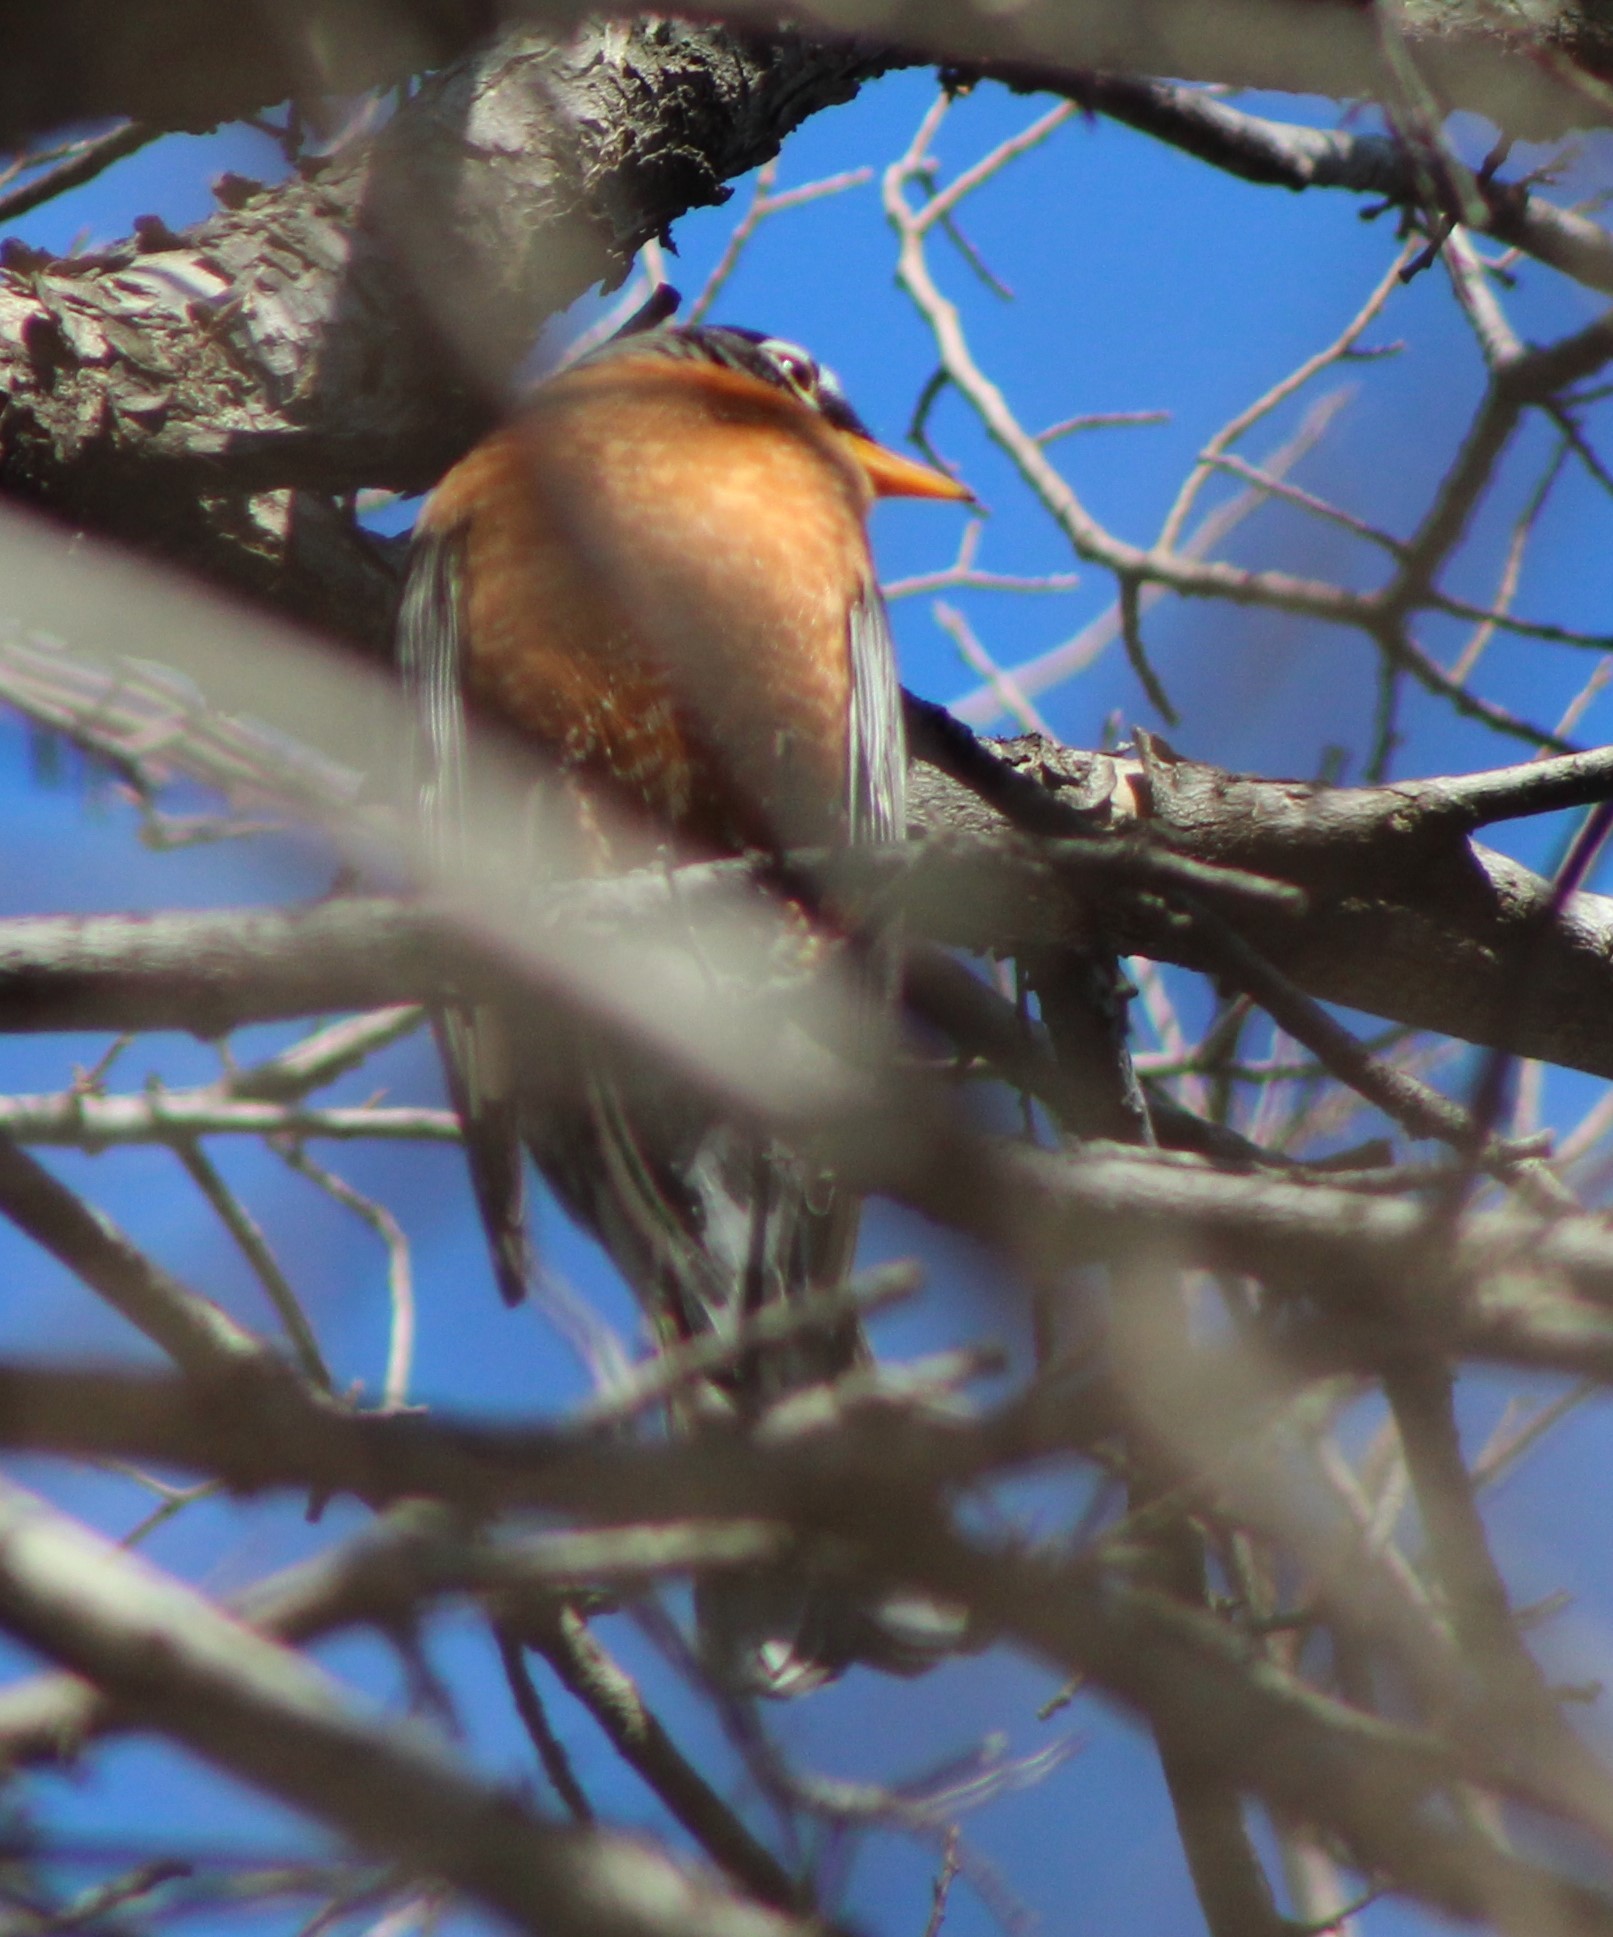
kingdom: Animalia
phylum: Chordata
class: Aves
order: Passeriformes
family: Turdidae
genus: Turdus
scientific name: Turdus migratorius
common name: American robin
